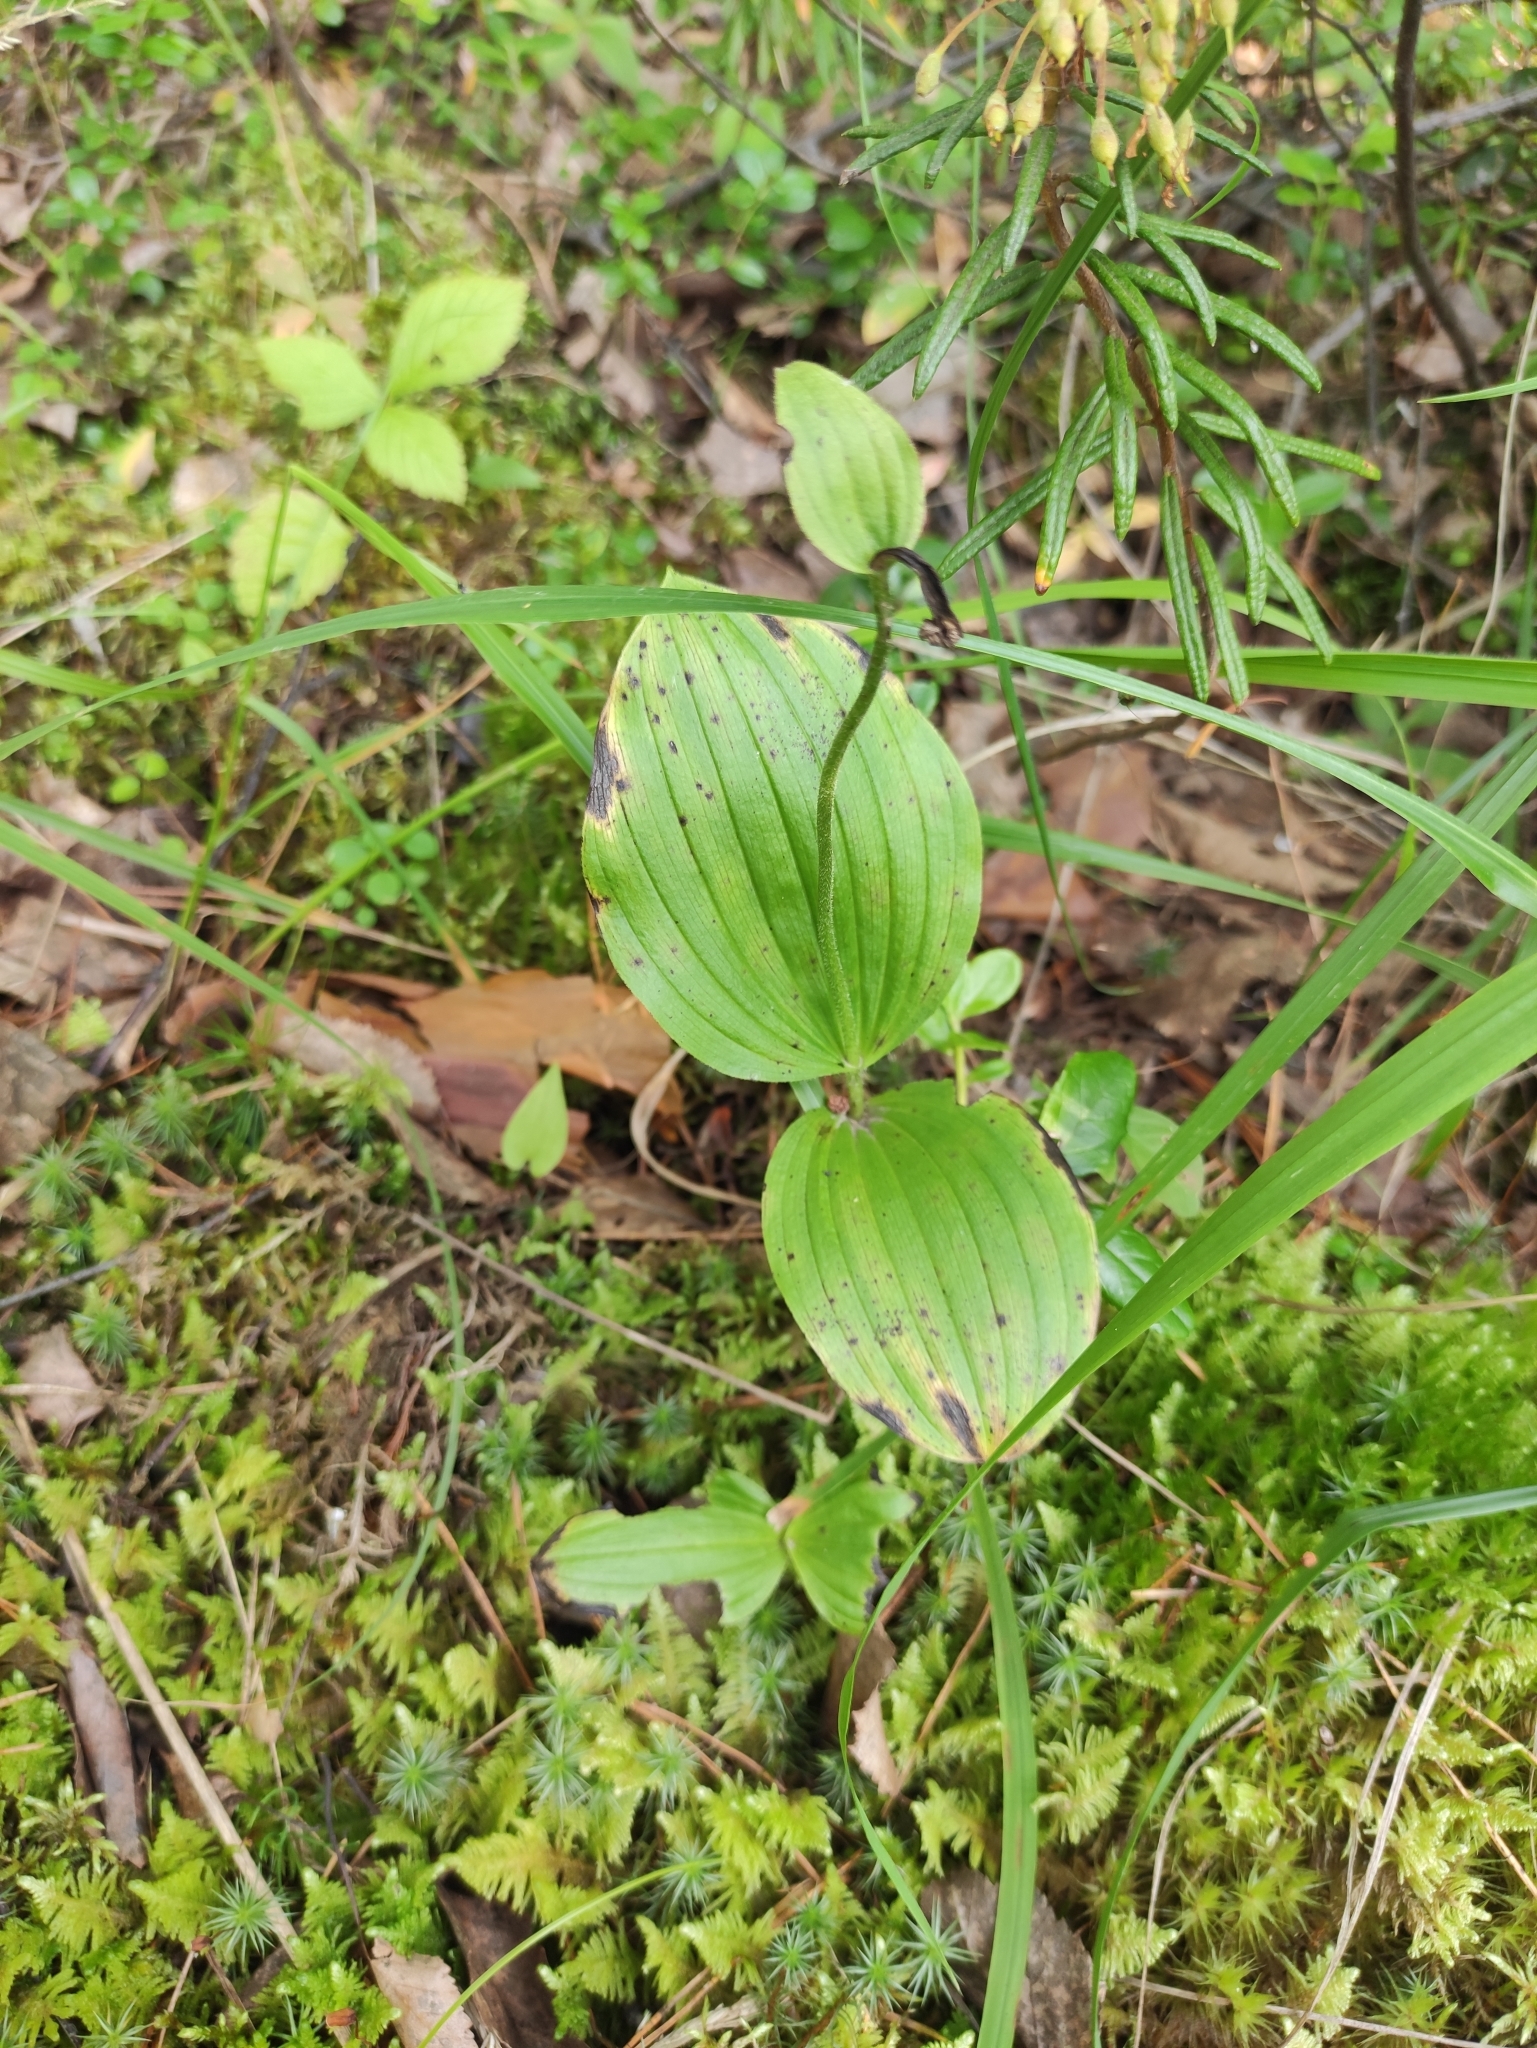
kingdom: Plantae
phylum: Tracheophyta
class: Liliopsida
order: Asparagales
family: Orchidaceae
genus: Cypripedium
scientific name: Cypripedium guttatum
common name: Pink lady slipper
